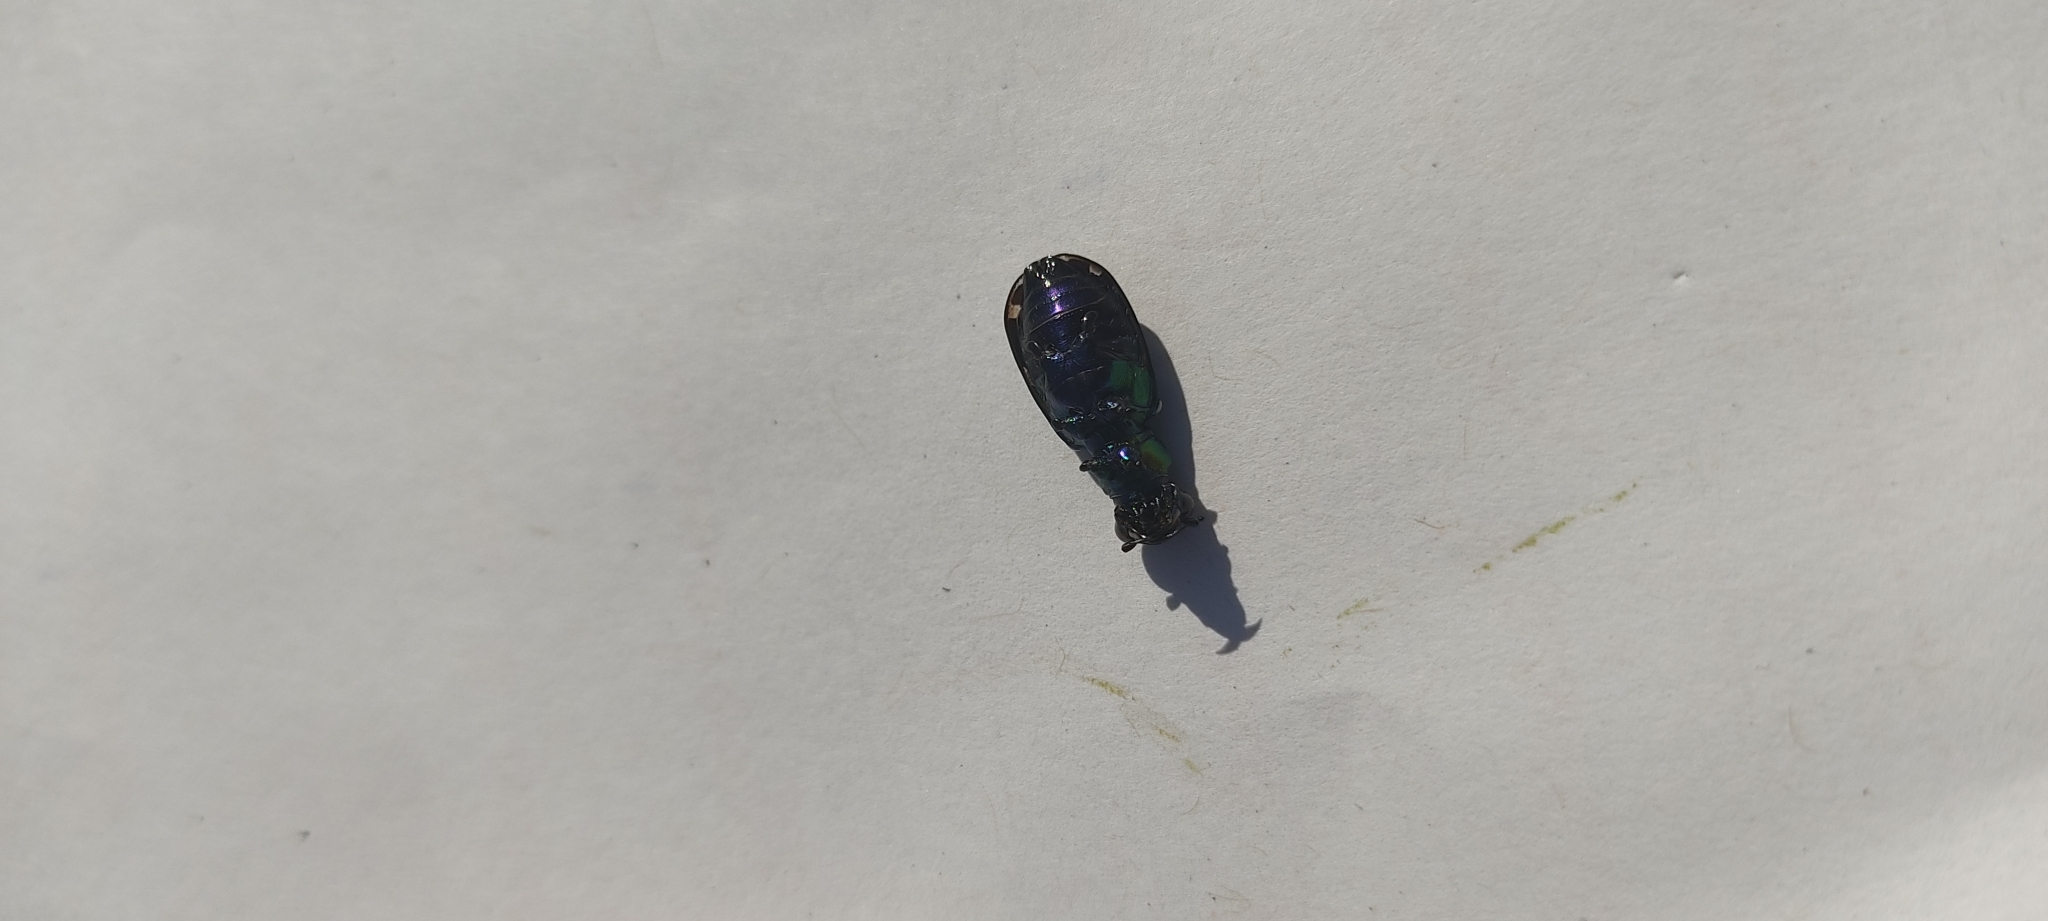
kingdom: Animalia
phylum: Arthropoda
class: Insecta
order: Coleoptera
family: Carabidae
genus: Cicindela
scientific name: Cicindela campestris
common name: Common tiger beetle
